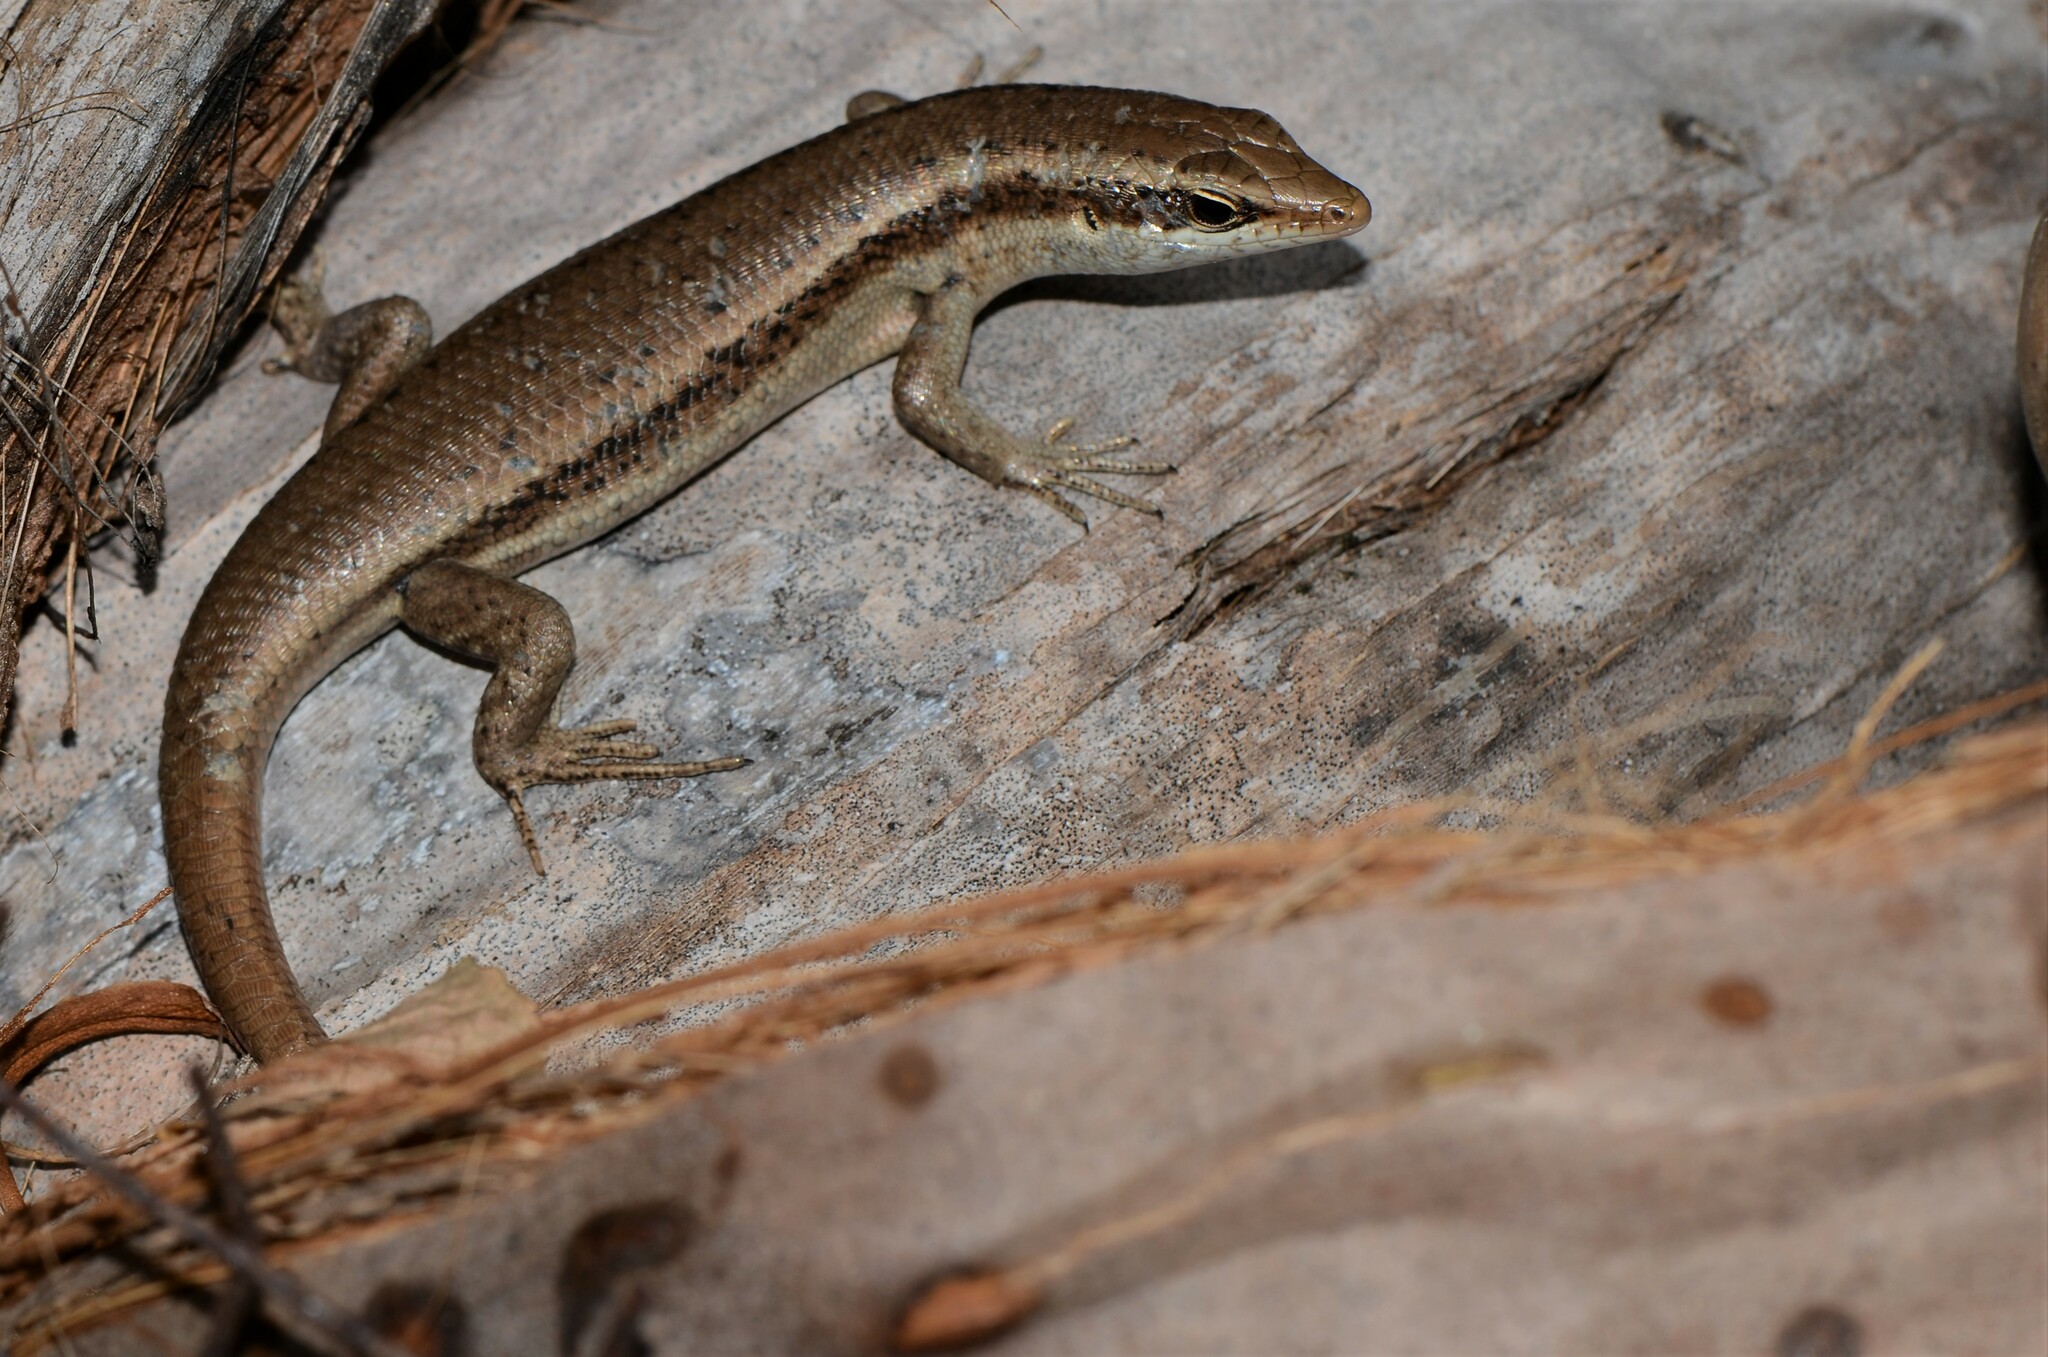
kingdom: Animalia
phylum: Chordata
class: Squamata
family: Scincidae
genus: Trachylepis
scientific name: Trachylepis sechellensis
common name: Seychelles skink
